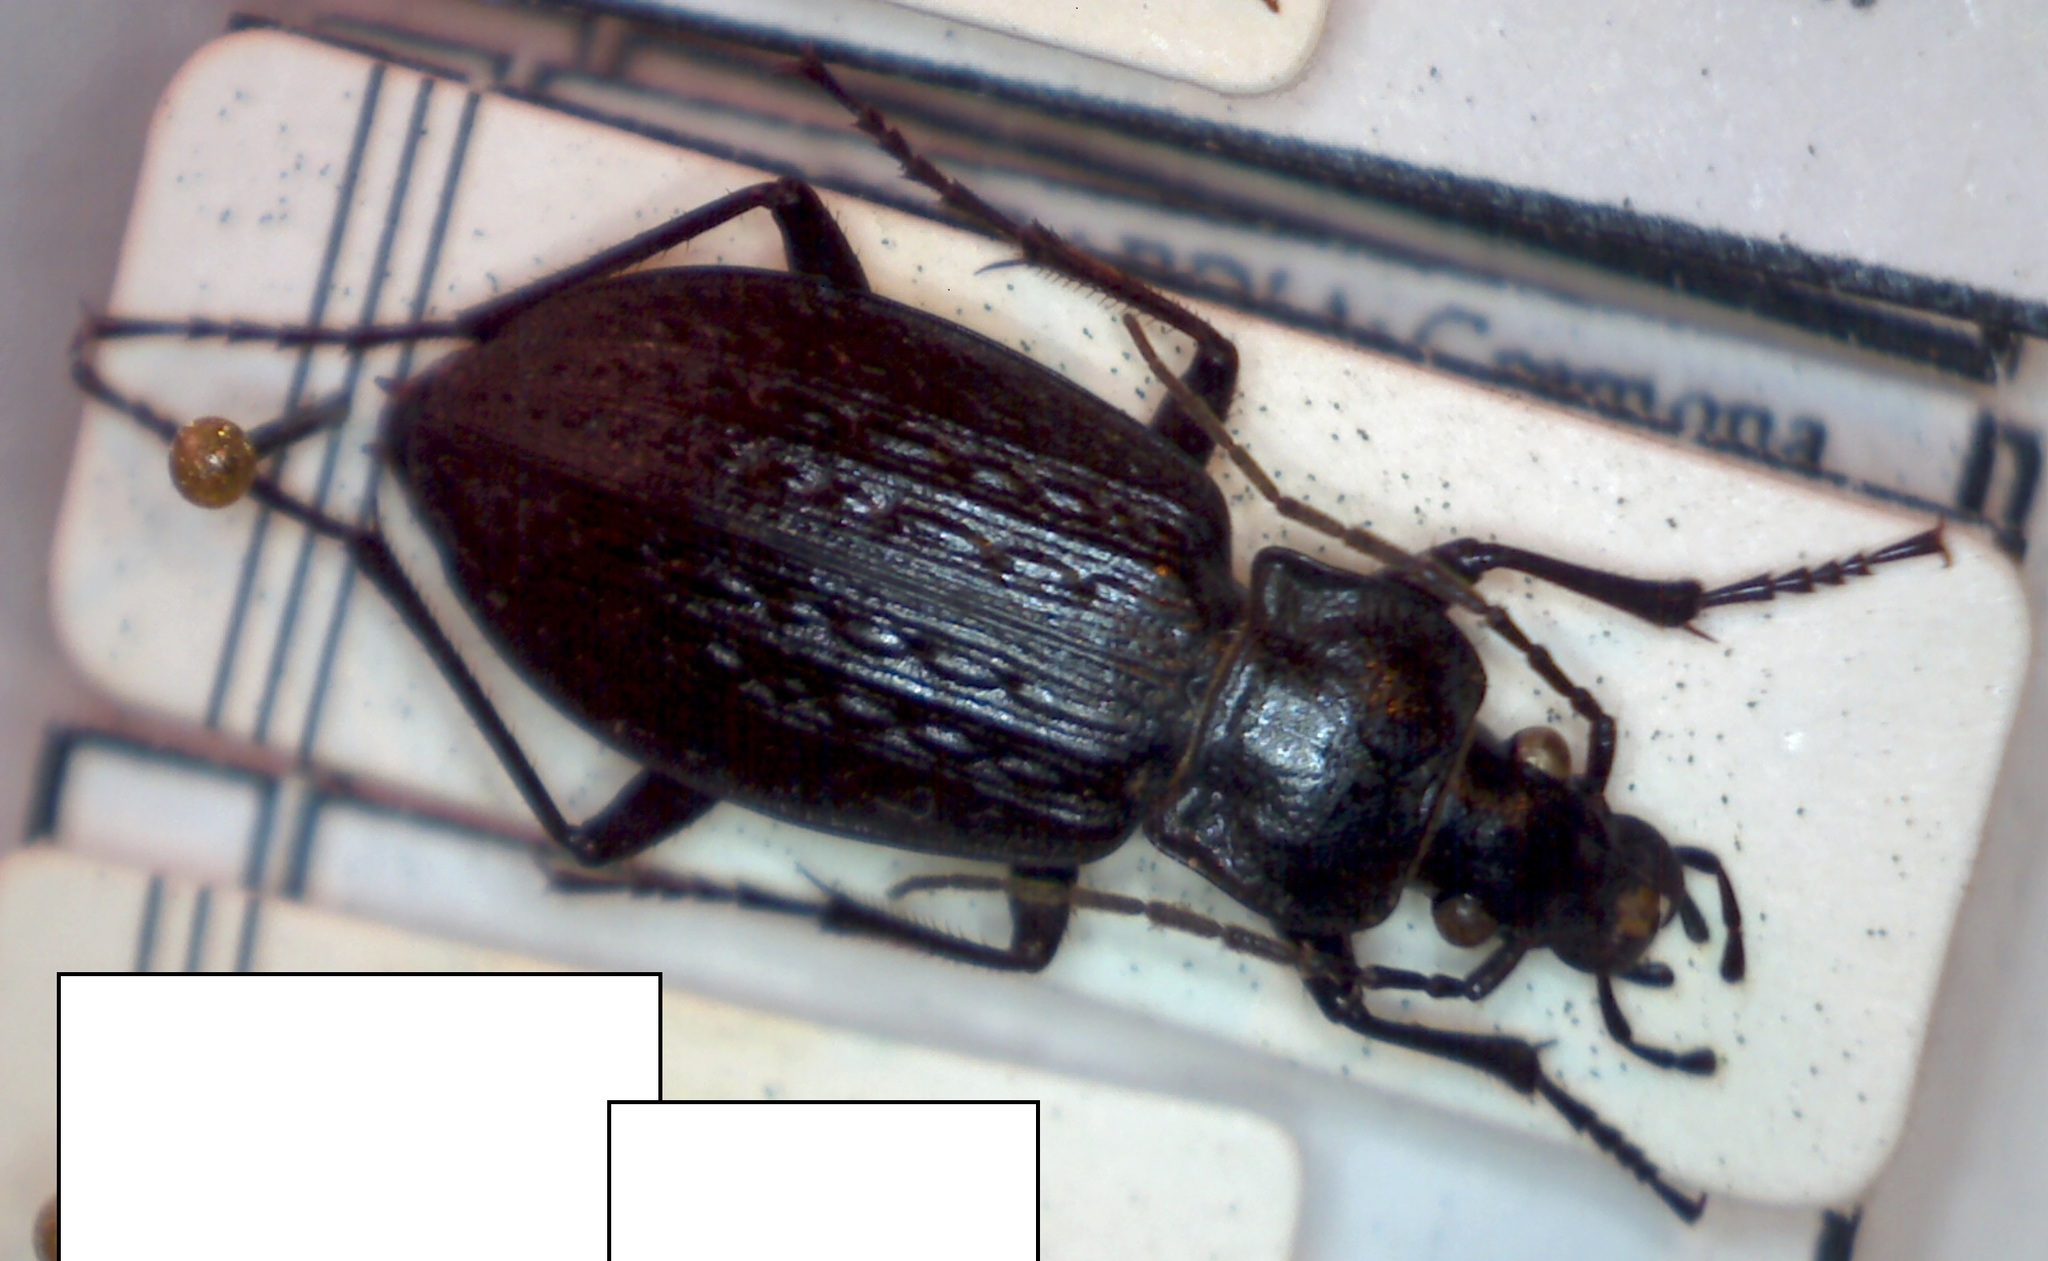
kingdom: Animalia
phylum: Arthropoda
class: Insecta
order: Coleoptera
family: Carabidae
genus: Carabus
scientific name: Carabus granulatus
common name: Granulate ground beetle
